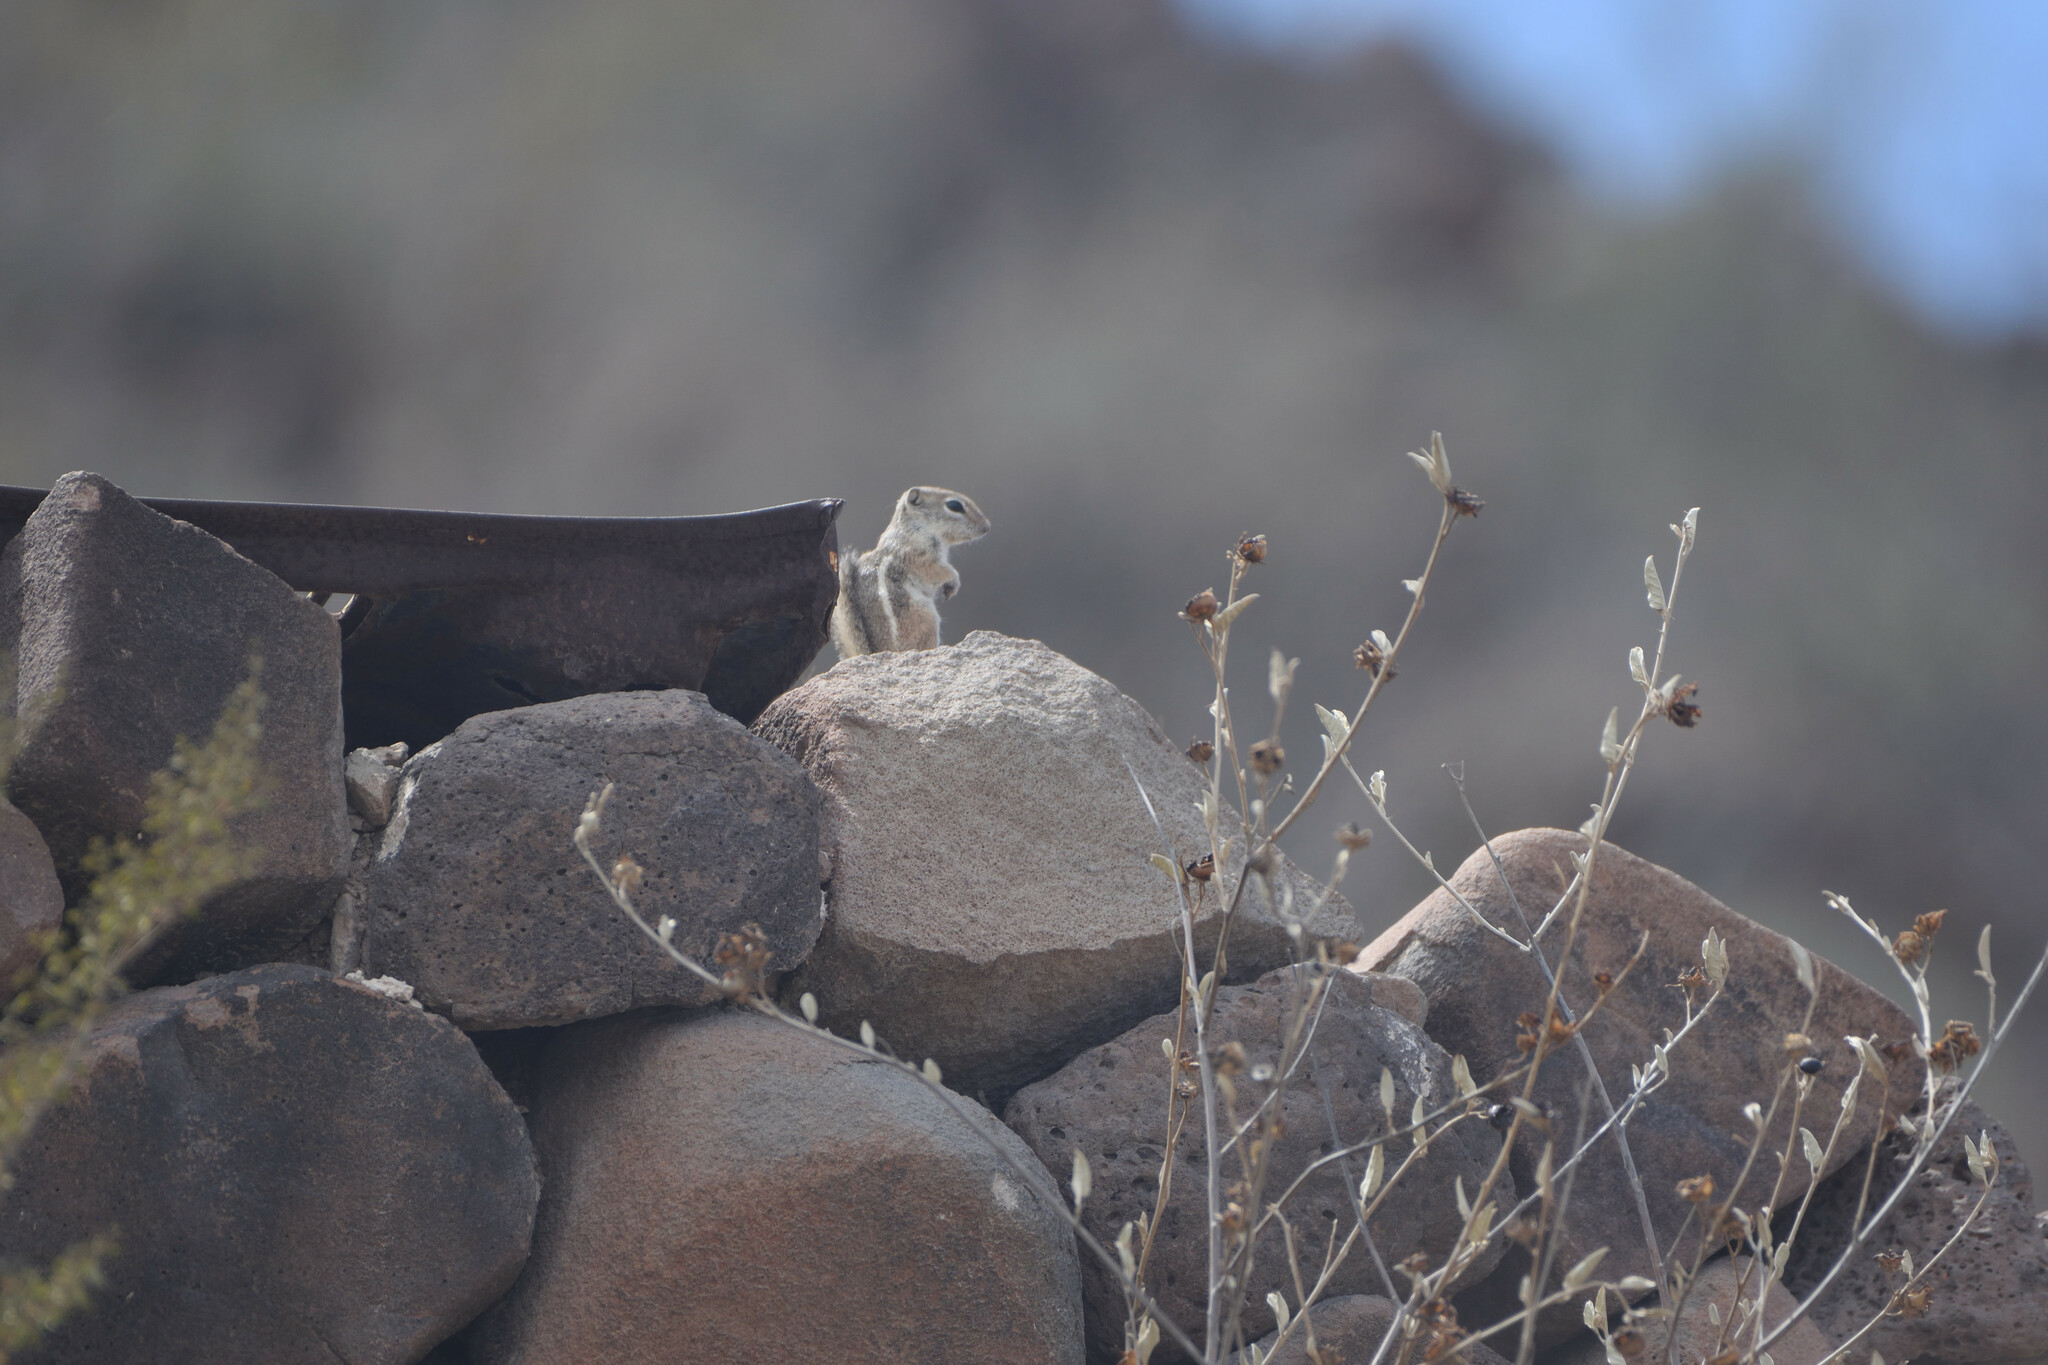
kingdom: Animalia
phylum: Chordata
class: Mammalia
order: Rodentia
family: Sciuridae
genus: Ammospermophilus
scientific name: Ammospermophilus leucurus
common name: White-tailed antelope squirrel
